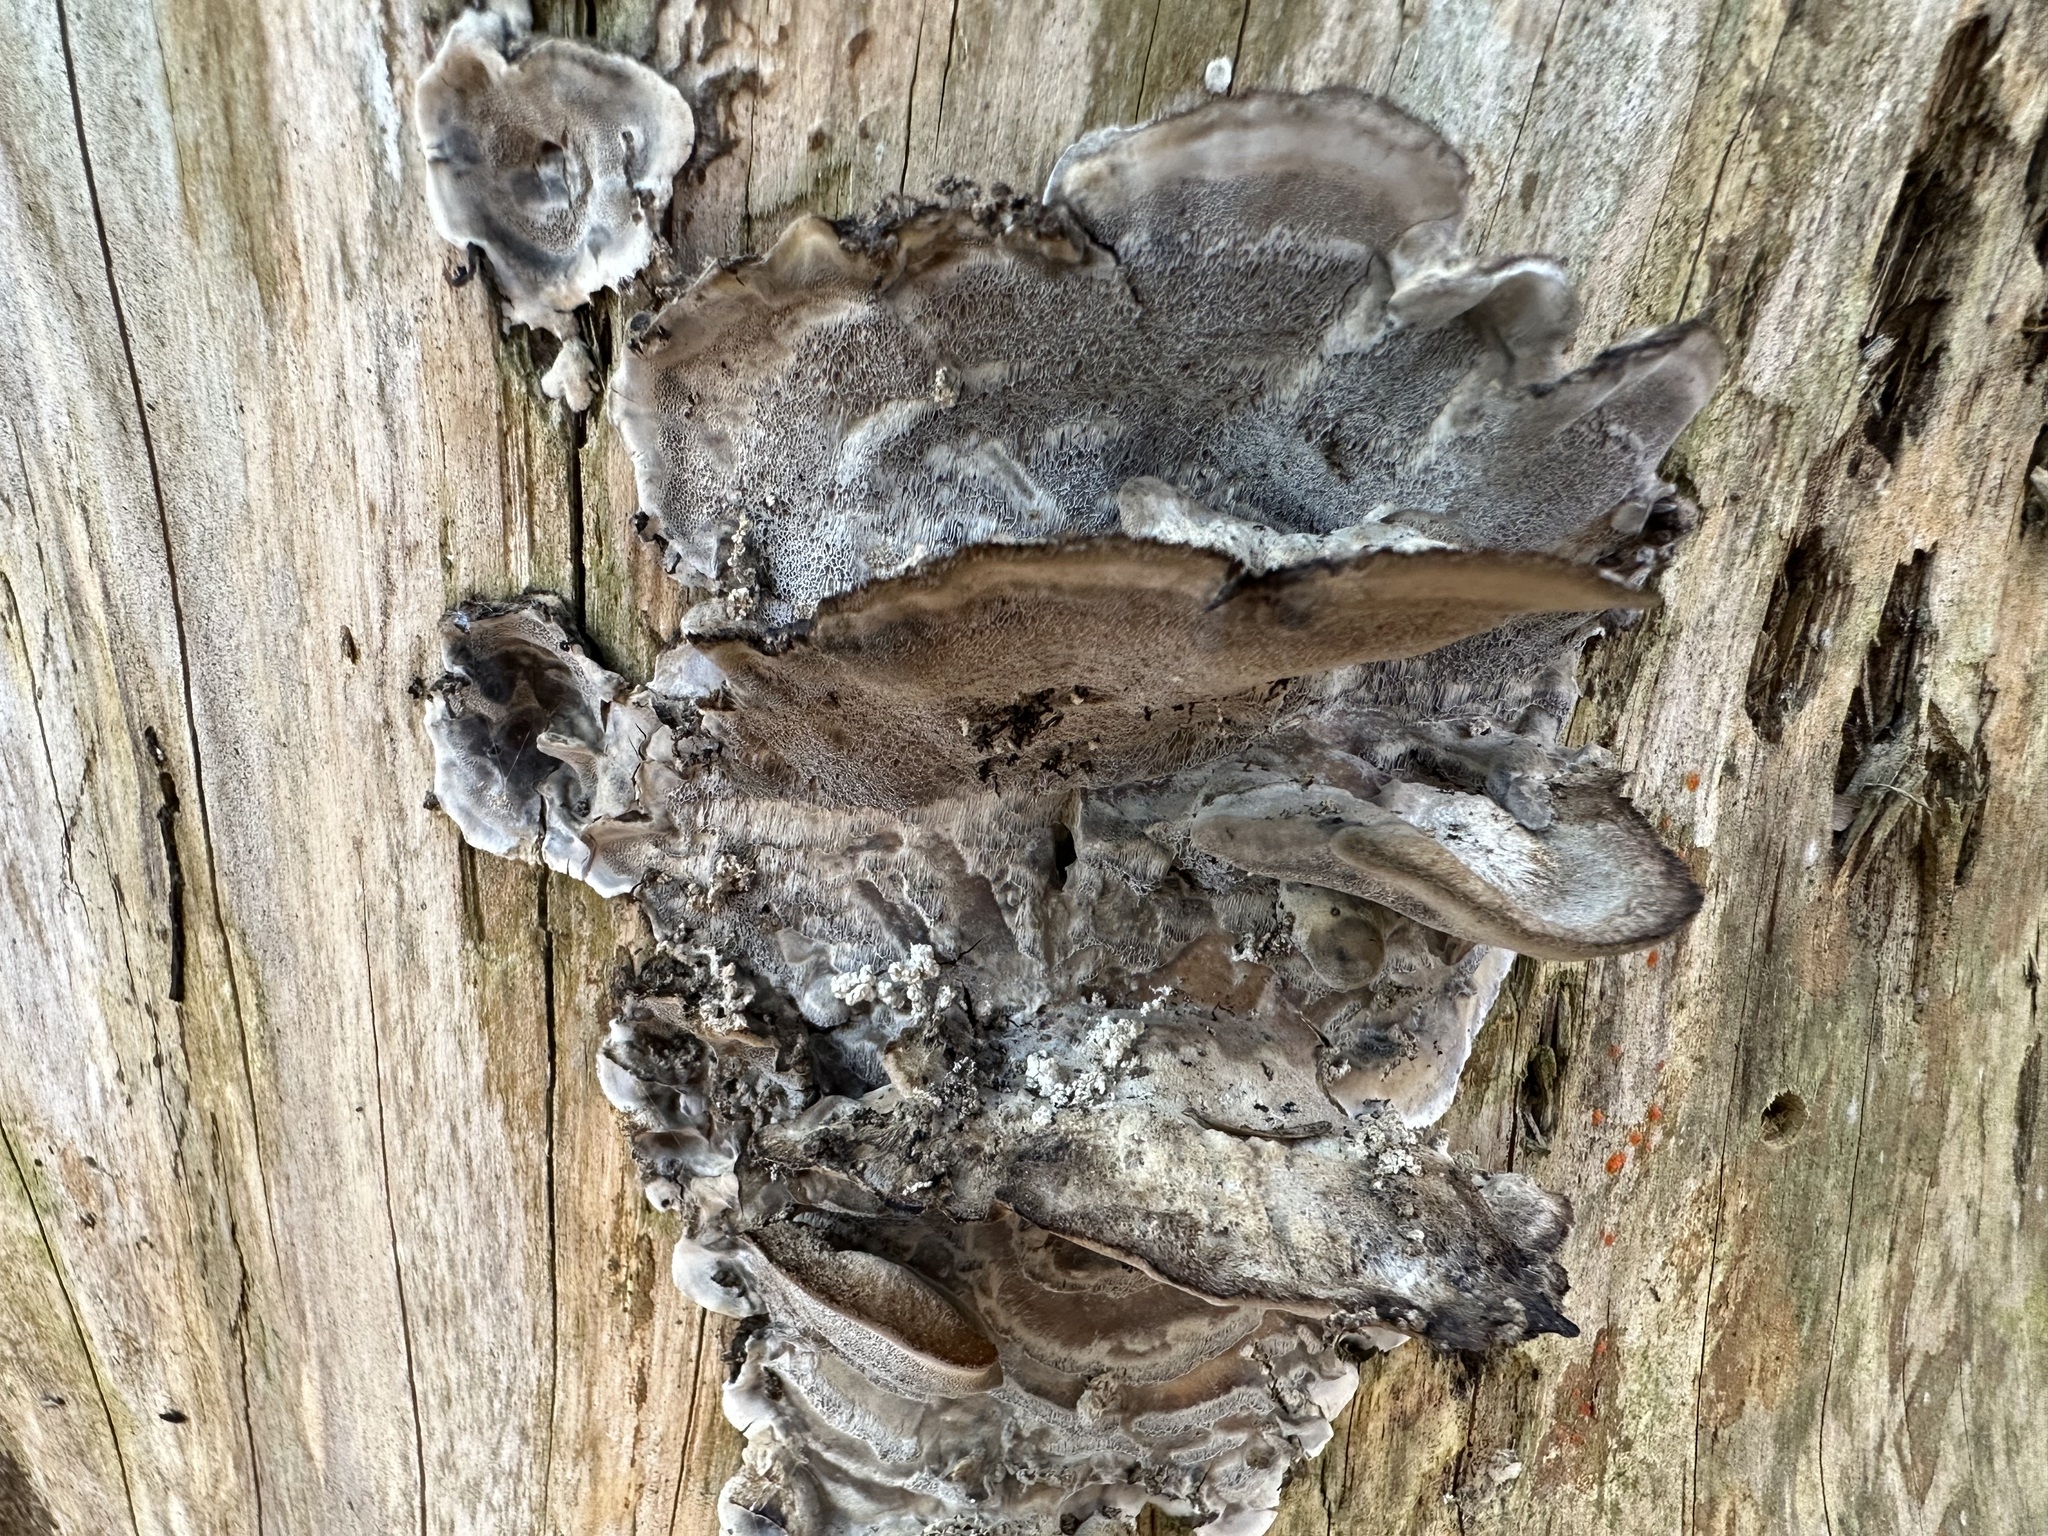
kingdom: Fungi
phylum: Basidiomycota
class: Agaricomycetes
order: Polyporales
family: Phanerochaetaceae
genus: Bjerkandera
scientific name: Bjerkandera adusta
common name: Smoky bracket
